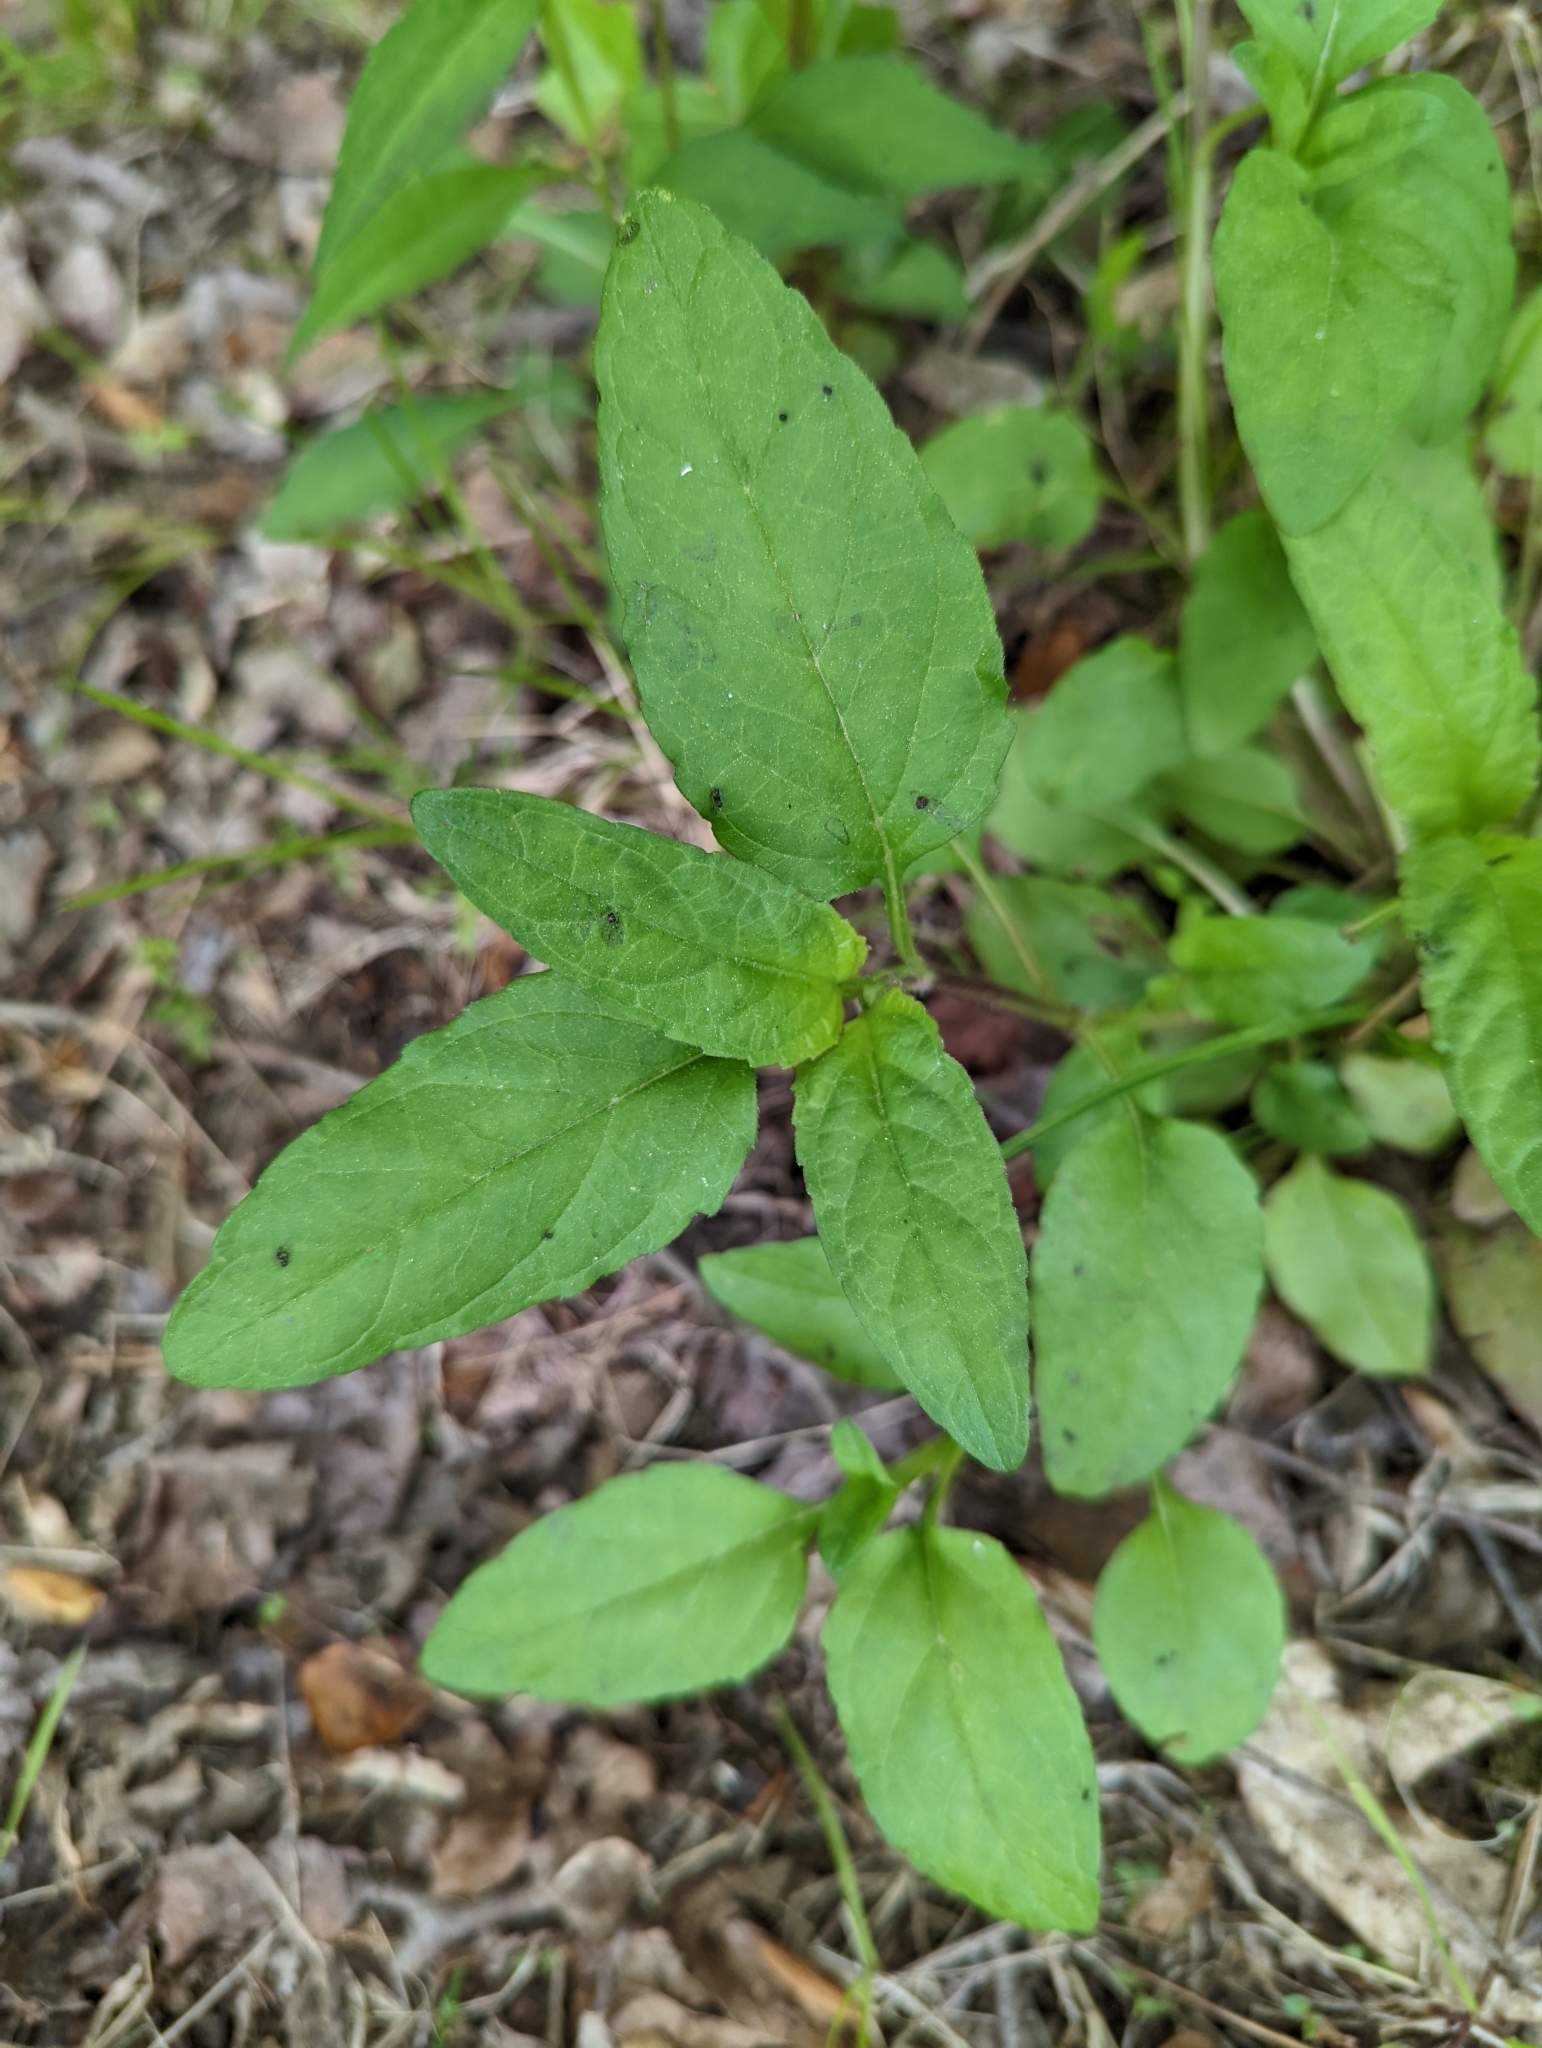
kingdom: Plantae
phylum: Tracheophyta
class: Magnoliopsida
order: Lamiales
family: Lamiaceae
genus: Prunella
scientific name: Prunella vulgaris
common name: Heal-all
